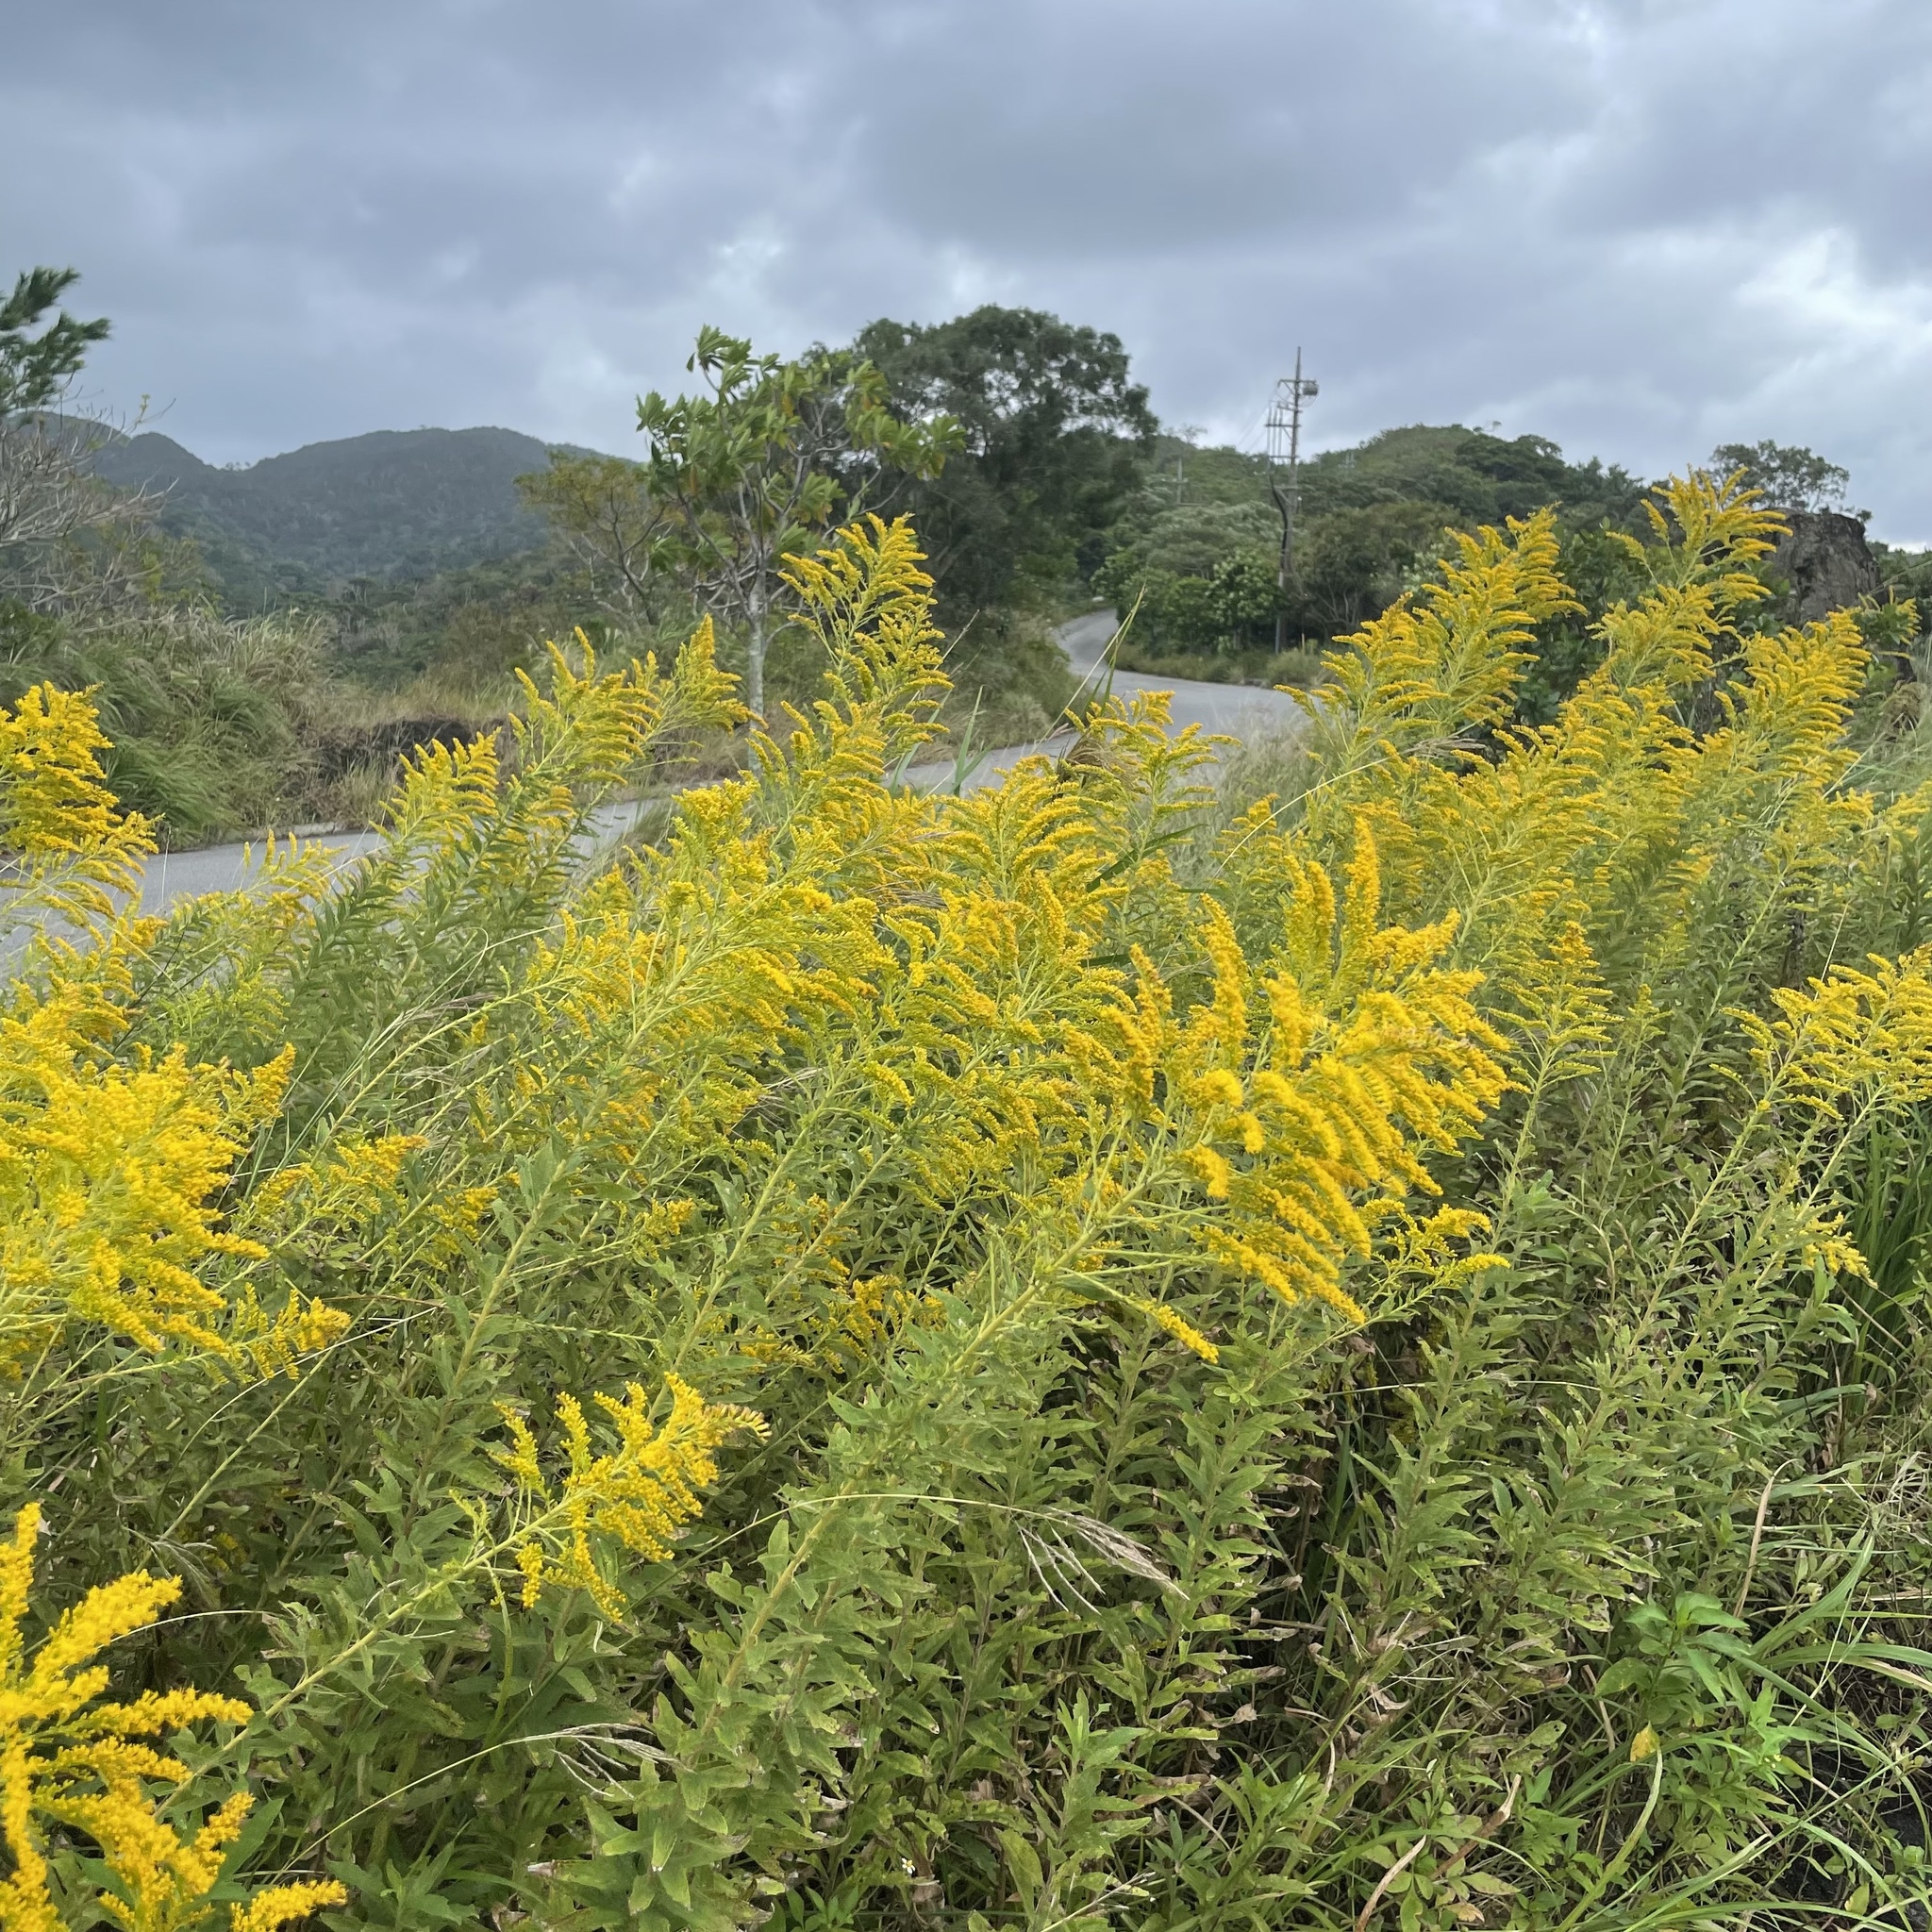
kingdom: Plantae
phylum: Tracheophyta
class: Magnoliopsida
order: Asterales
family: Asteraceae
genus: Solidago
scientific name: Solidago altissima
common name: Late goldenrod
